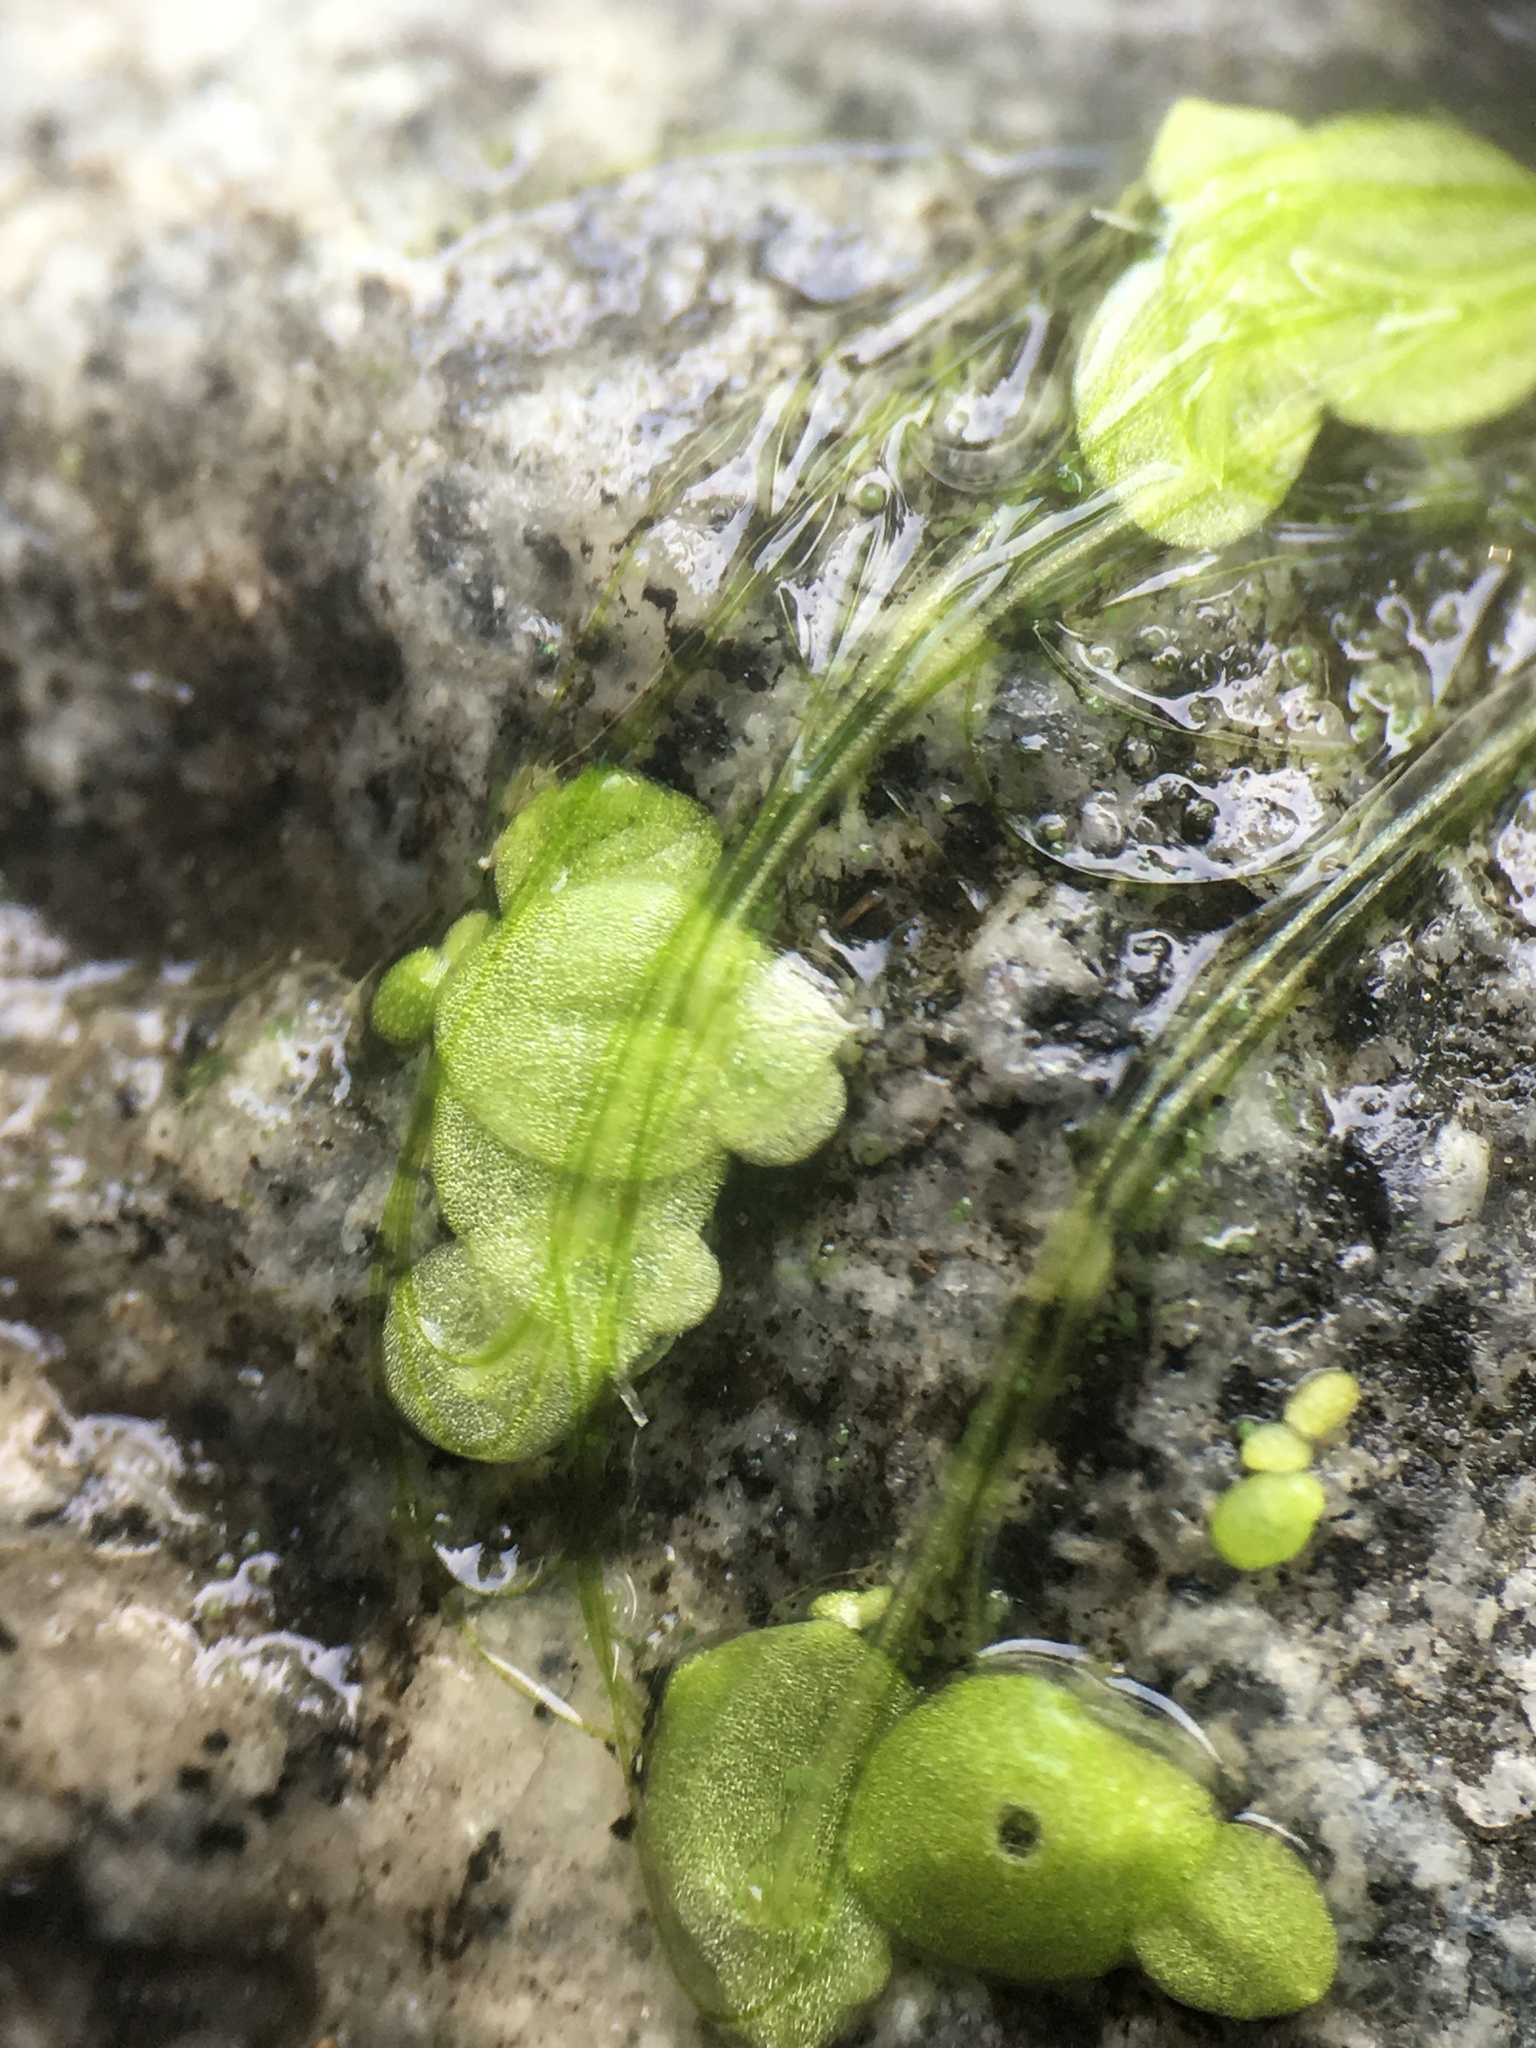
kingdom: Plantae
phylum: Tracheophyta
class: Liliopsida
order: Alismatales
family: Araceae
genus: Lemna
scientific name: Lemna minor
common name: Common duckweed
